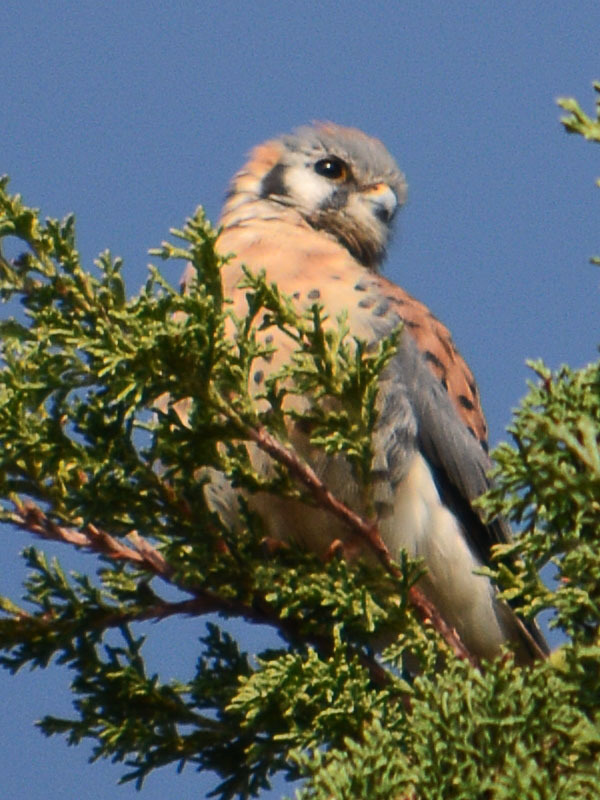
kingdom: Animalia
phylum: Chordata
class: Aves
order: Falconiformes
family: Falconidae
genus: Falco
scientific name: Falco sparverius
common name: American kestrel
